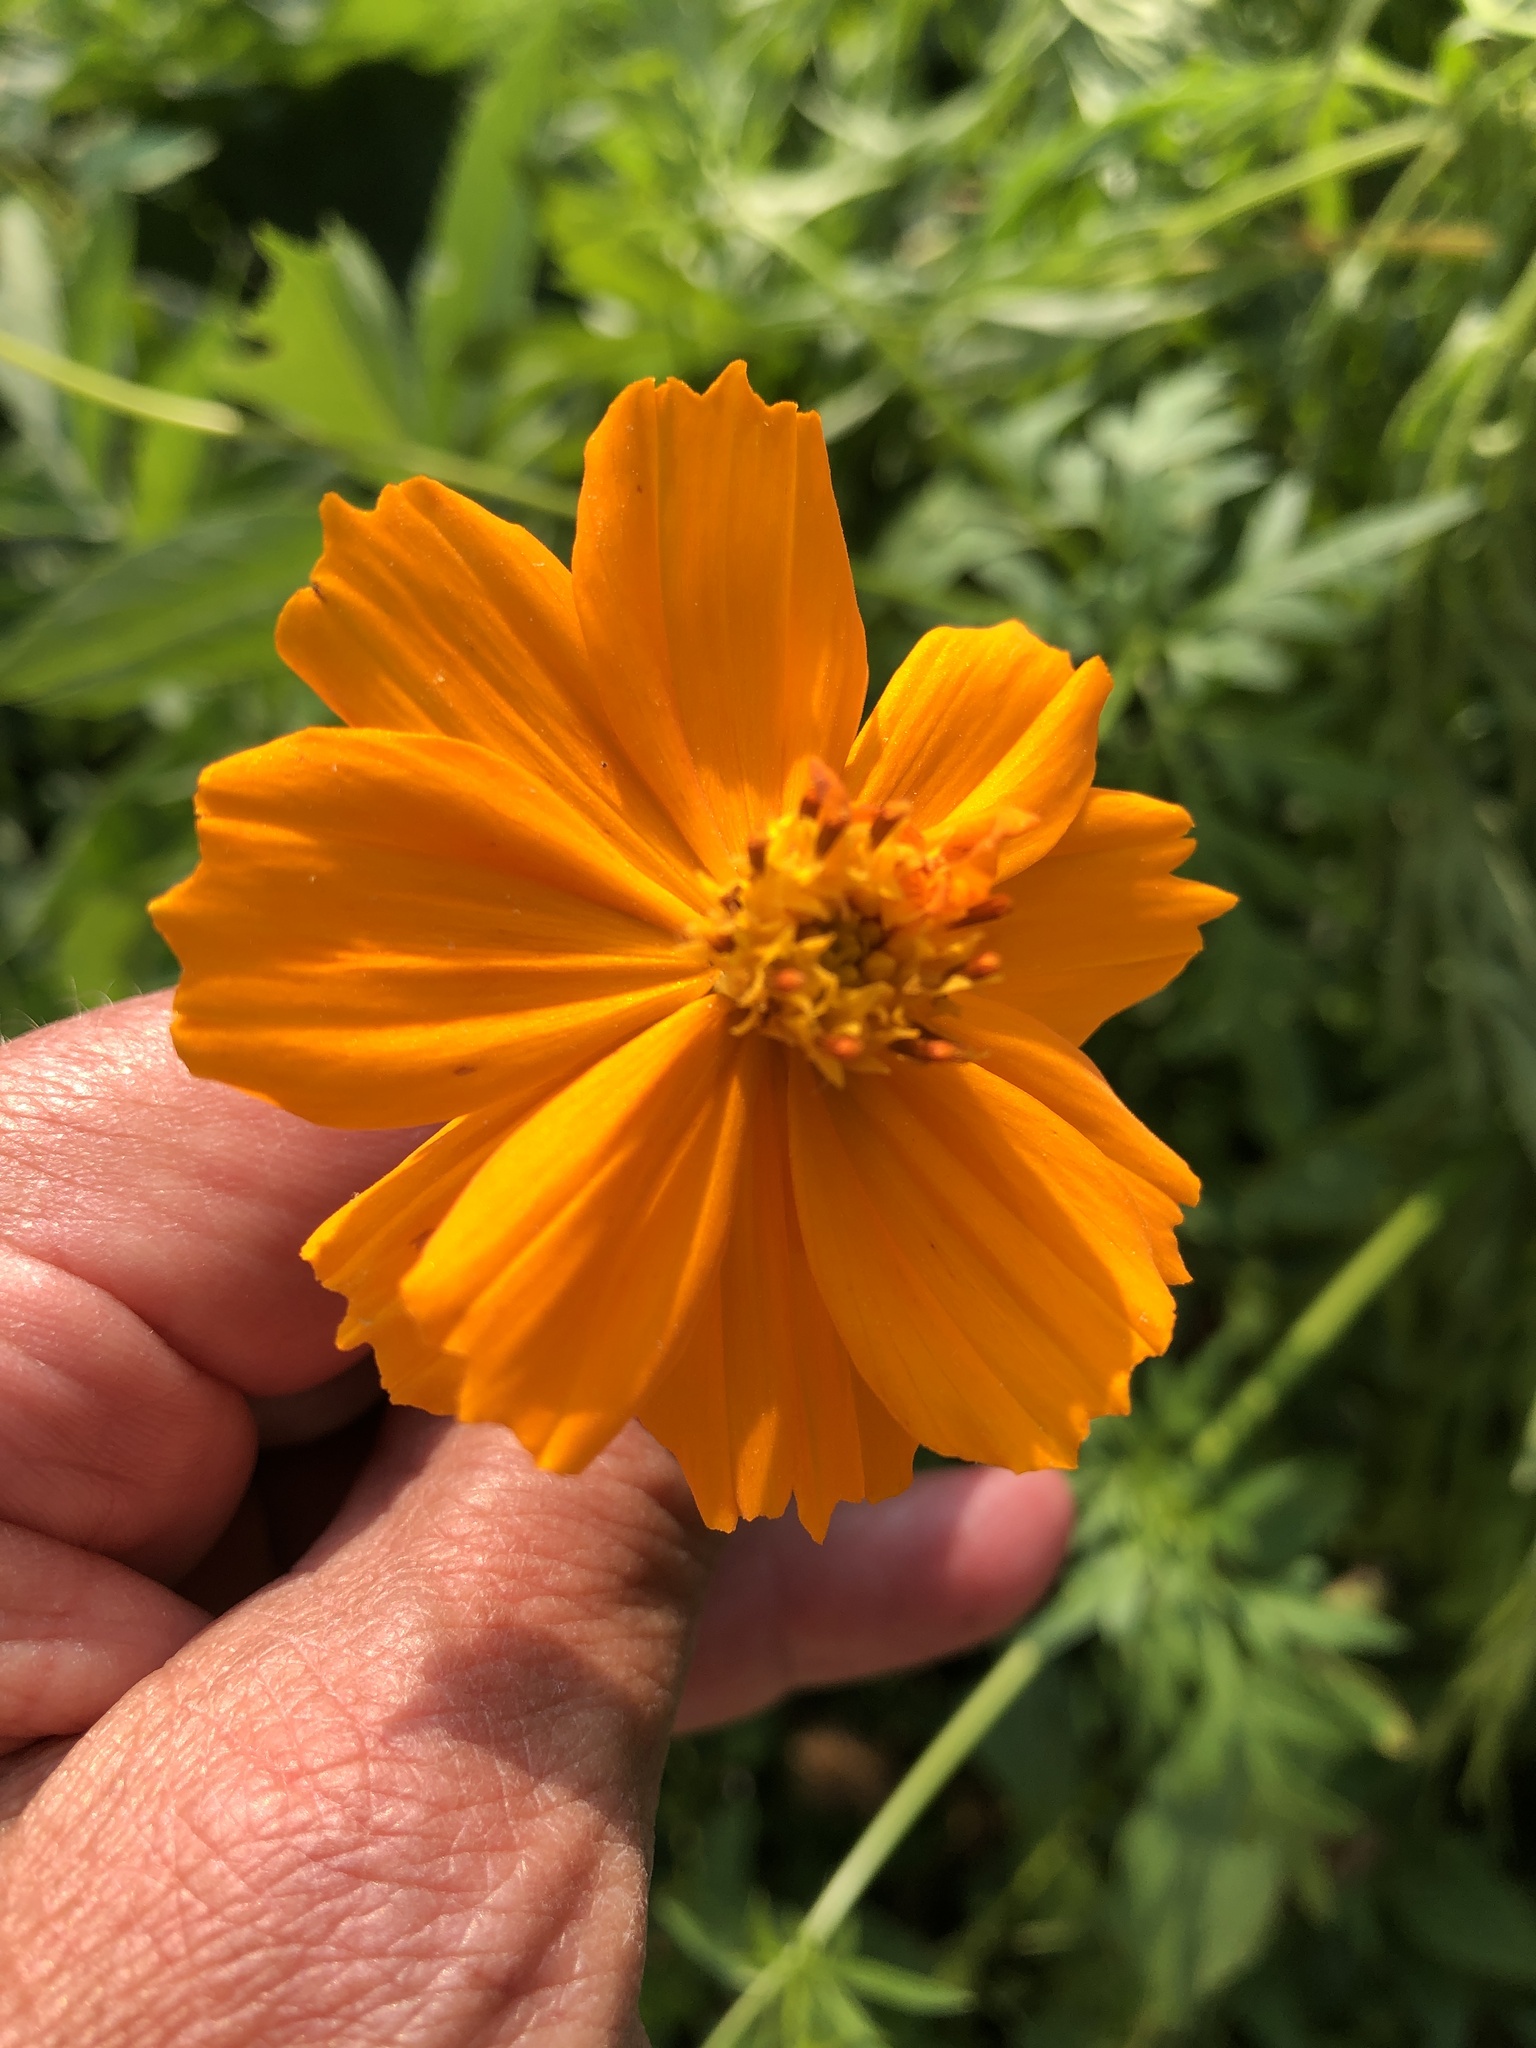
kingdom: Plantae
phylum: Tracheophyta
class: Magnoliopsida
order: Asterales
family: Asteraceae
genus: Cosmos
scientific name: Cosmos sulphureus
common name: Sulphur cosmos
